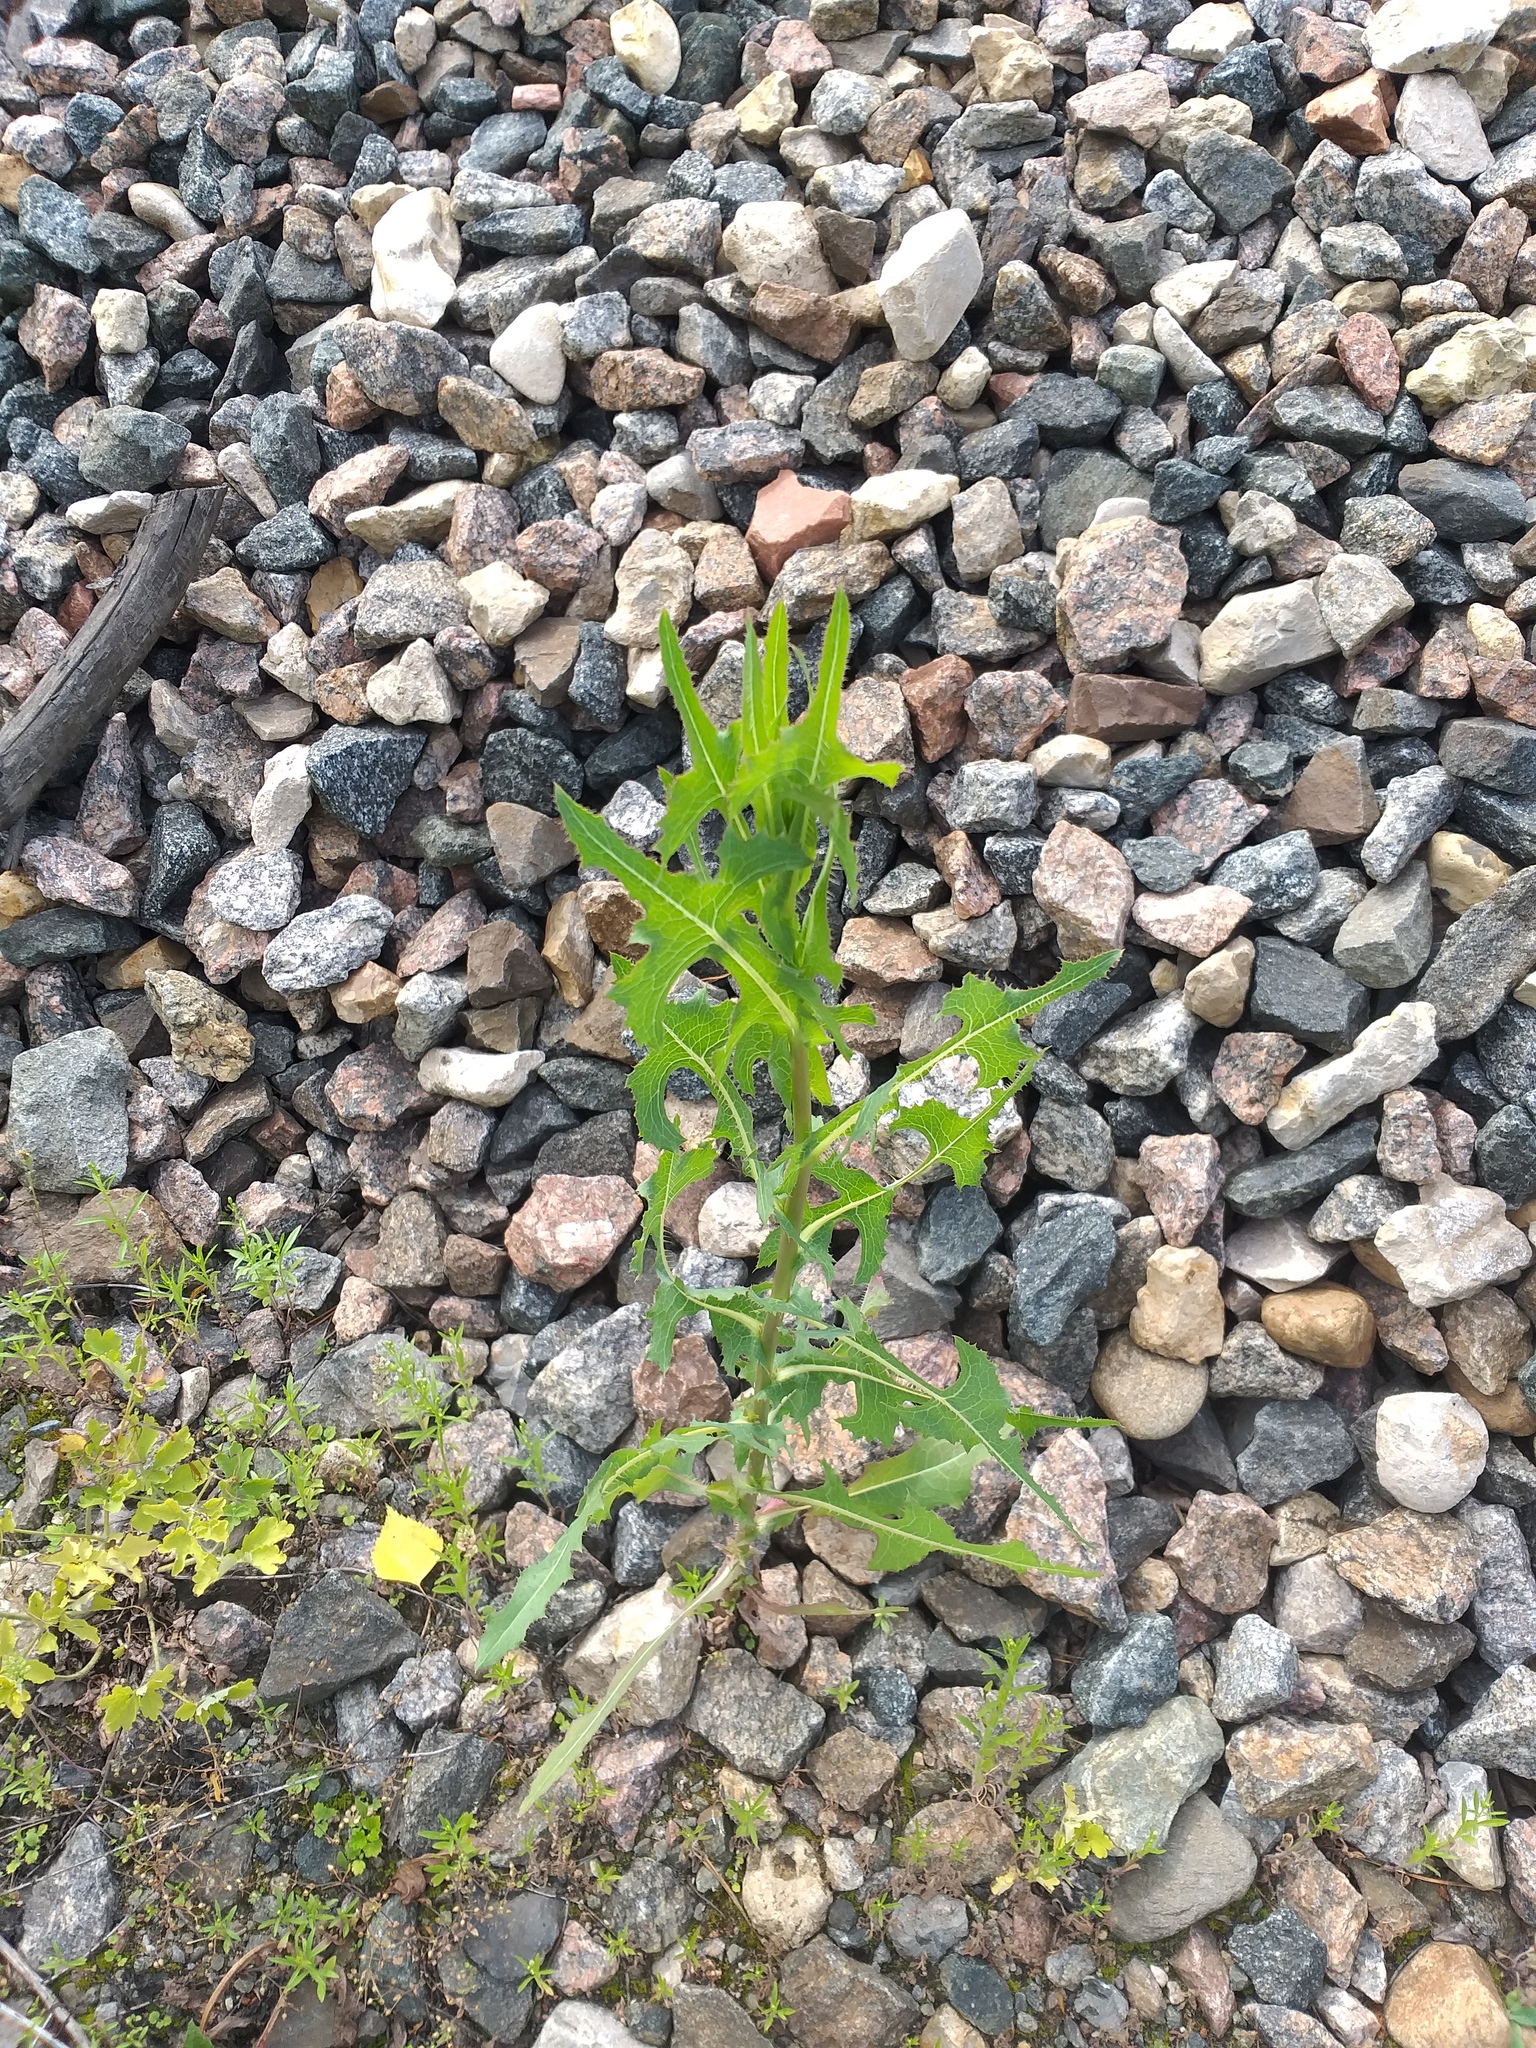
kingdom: Plantae
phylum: Tracheophyta
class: Magnoliopsida
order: Asterales
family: Asteraceae
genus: Lactuca
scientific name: Lactuca serriola
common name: Prickly lettuce
